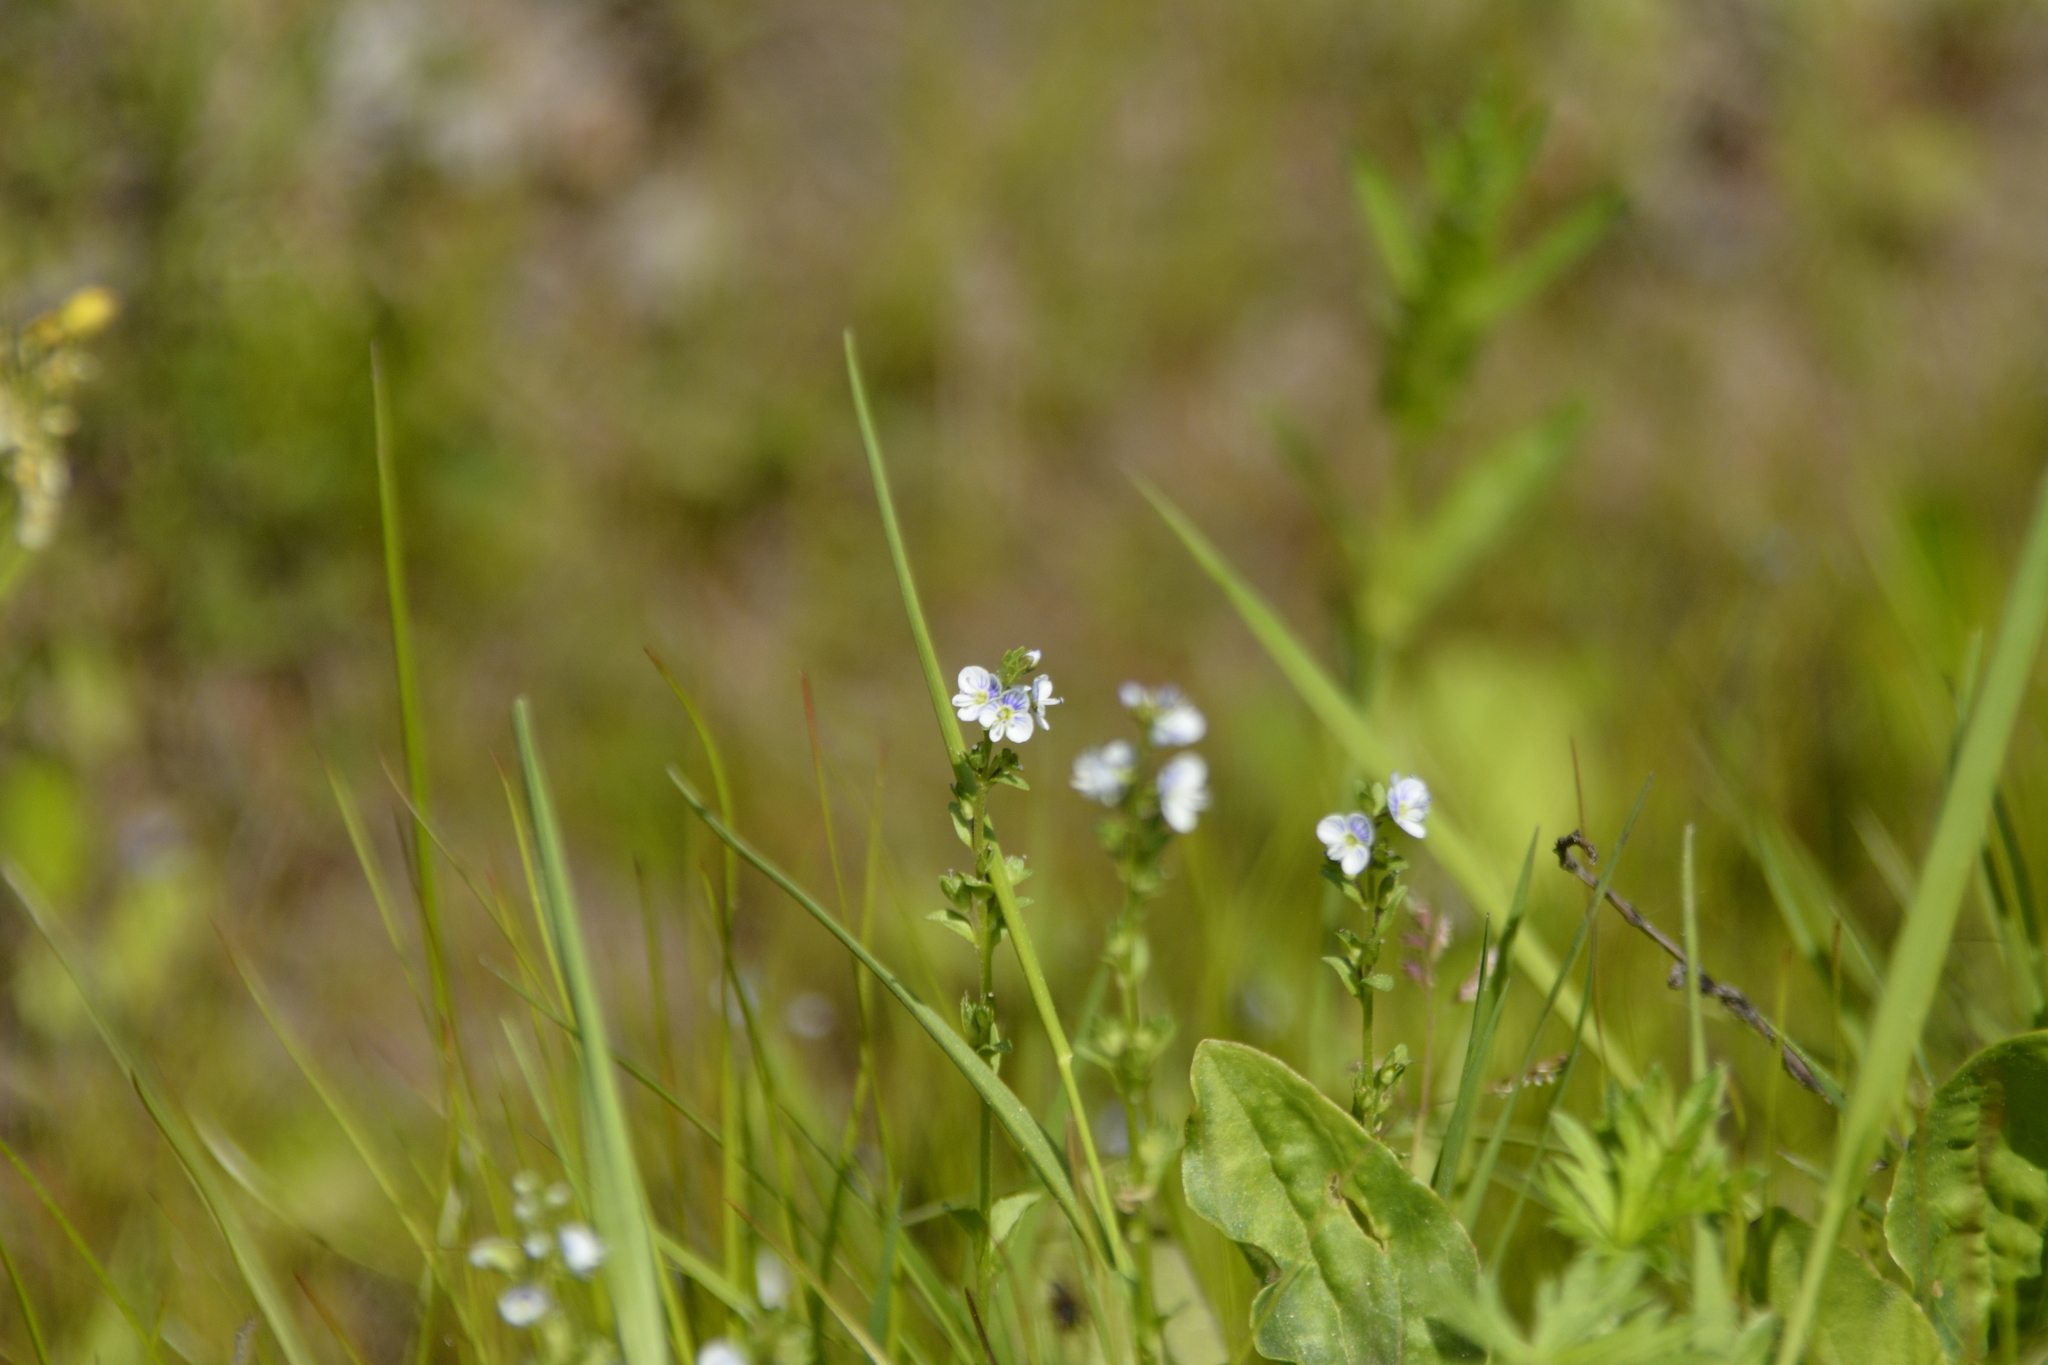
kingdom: Plantae
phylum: Tracheophyta
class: Magnoliopsida
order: Lamiales
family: Plantaginaceae
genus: Veronica
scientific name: Veronica serpyllifolia
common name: Thyme-leaved speedwell
